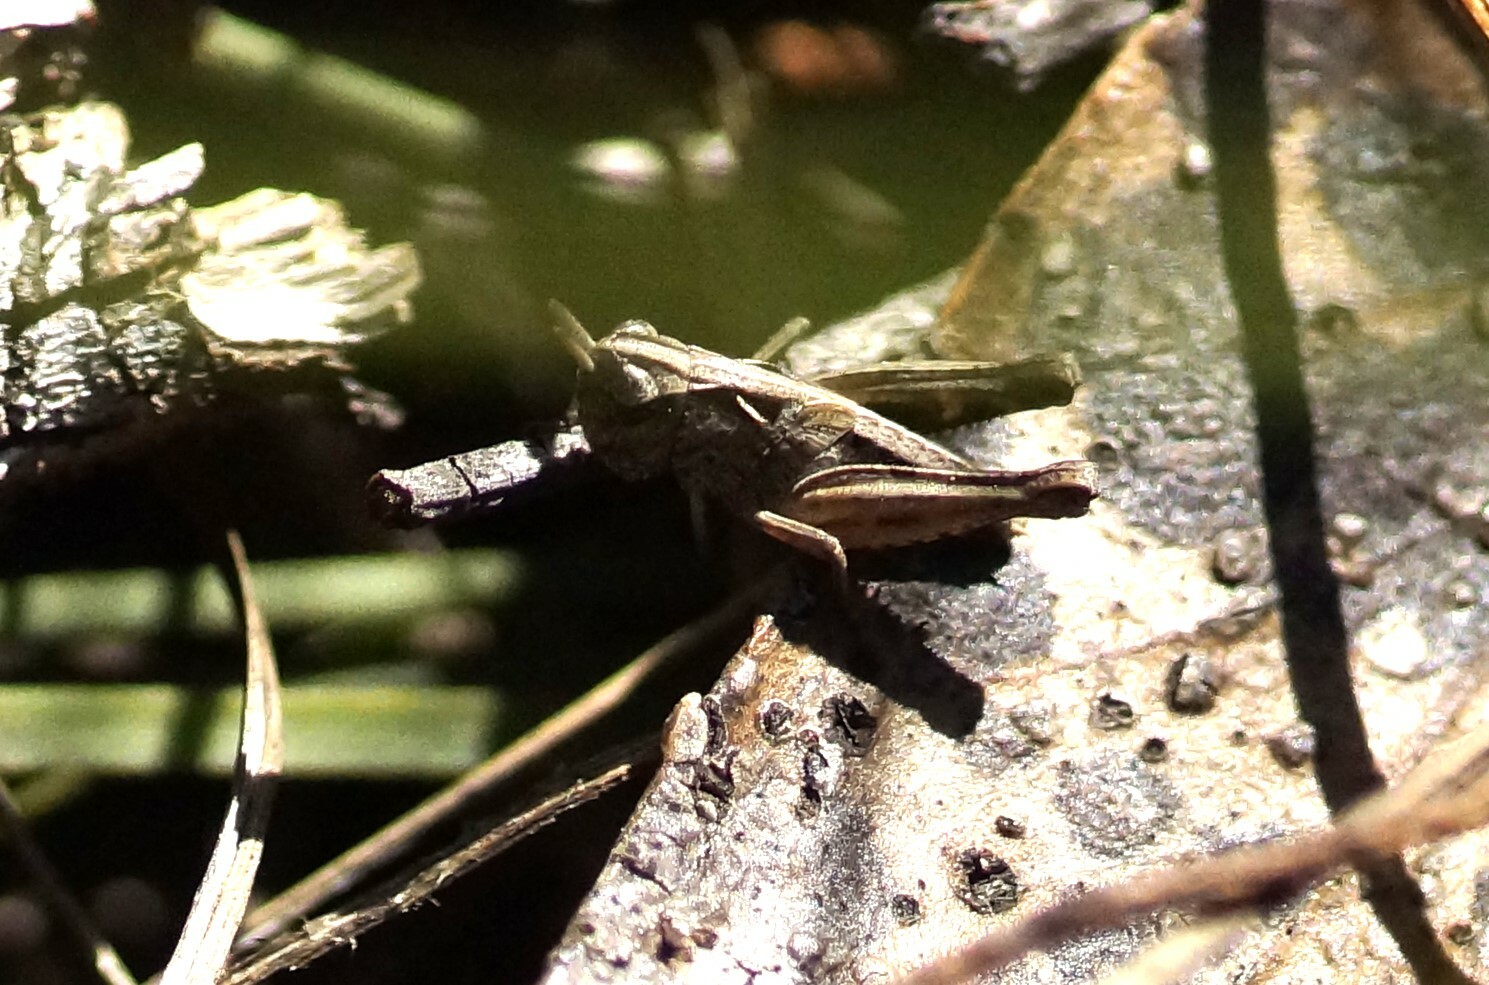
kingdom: Animalia
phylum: Arthropoda
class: Insecta
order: Orthoptera
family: Acrididae
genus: Cryptobothrus
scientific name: Cryptobothrus chrysophorus
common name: Golden bandwing
